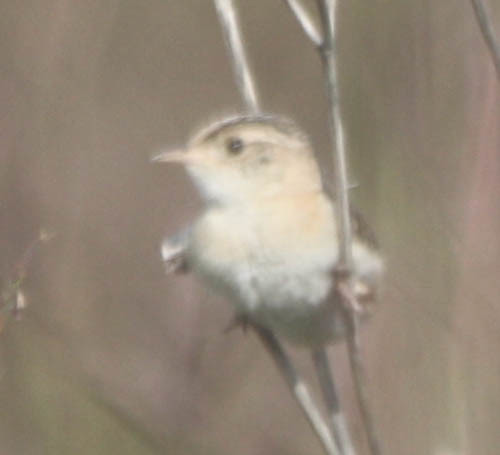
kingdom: Animalia
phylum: Chordata
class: Aves
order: Passeriformes
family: Troglodytidae
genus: Cistothorus
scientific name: Cistothorus platensis
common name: Sedge wren
